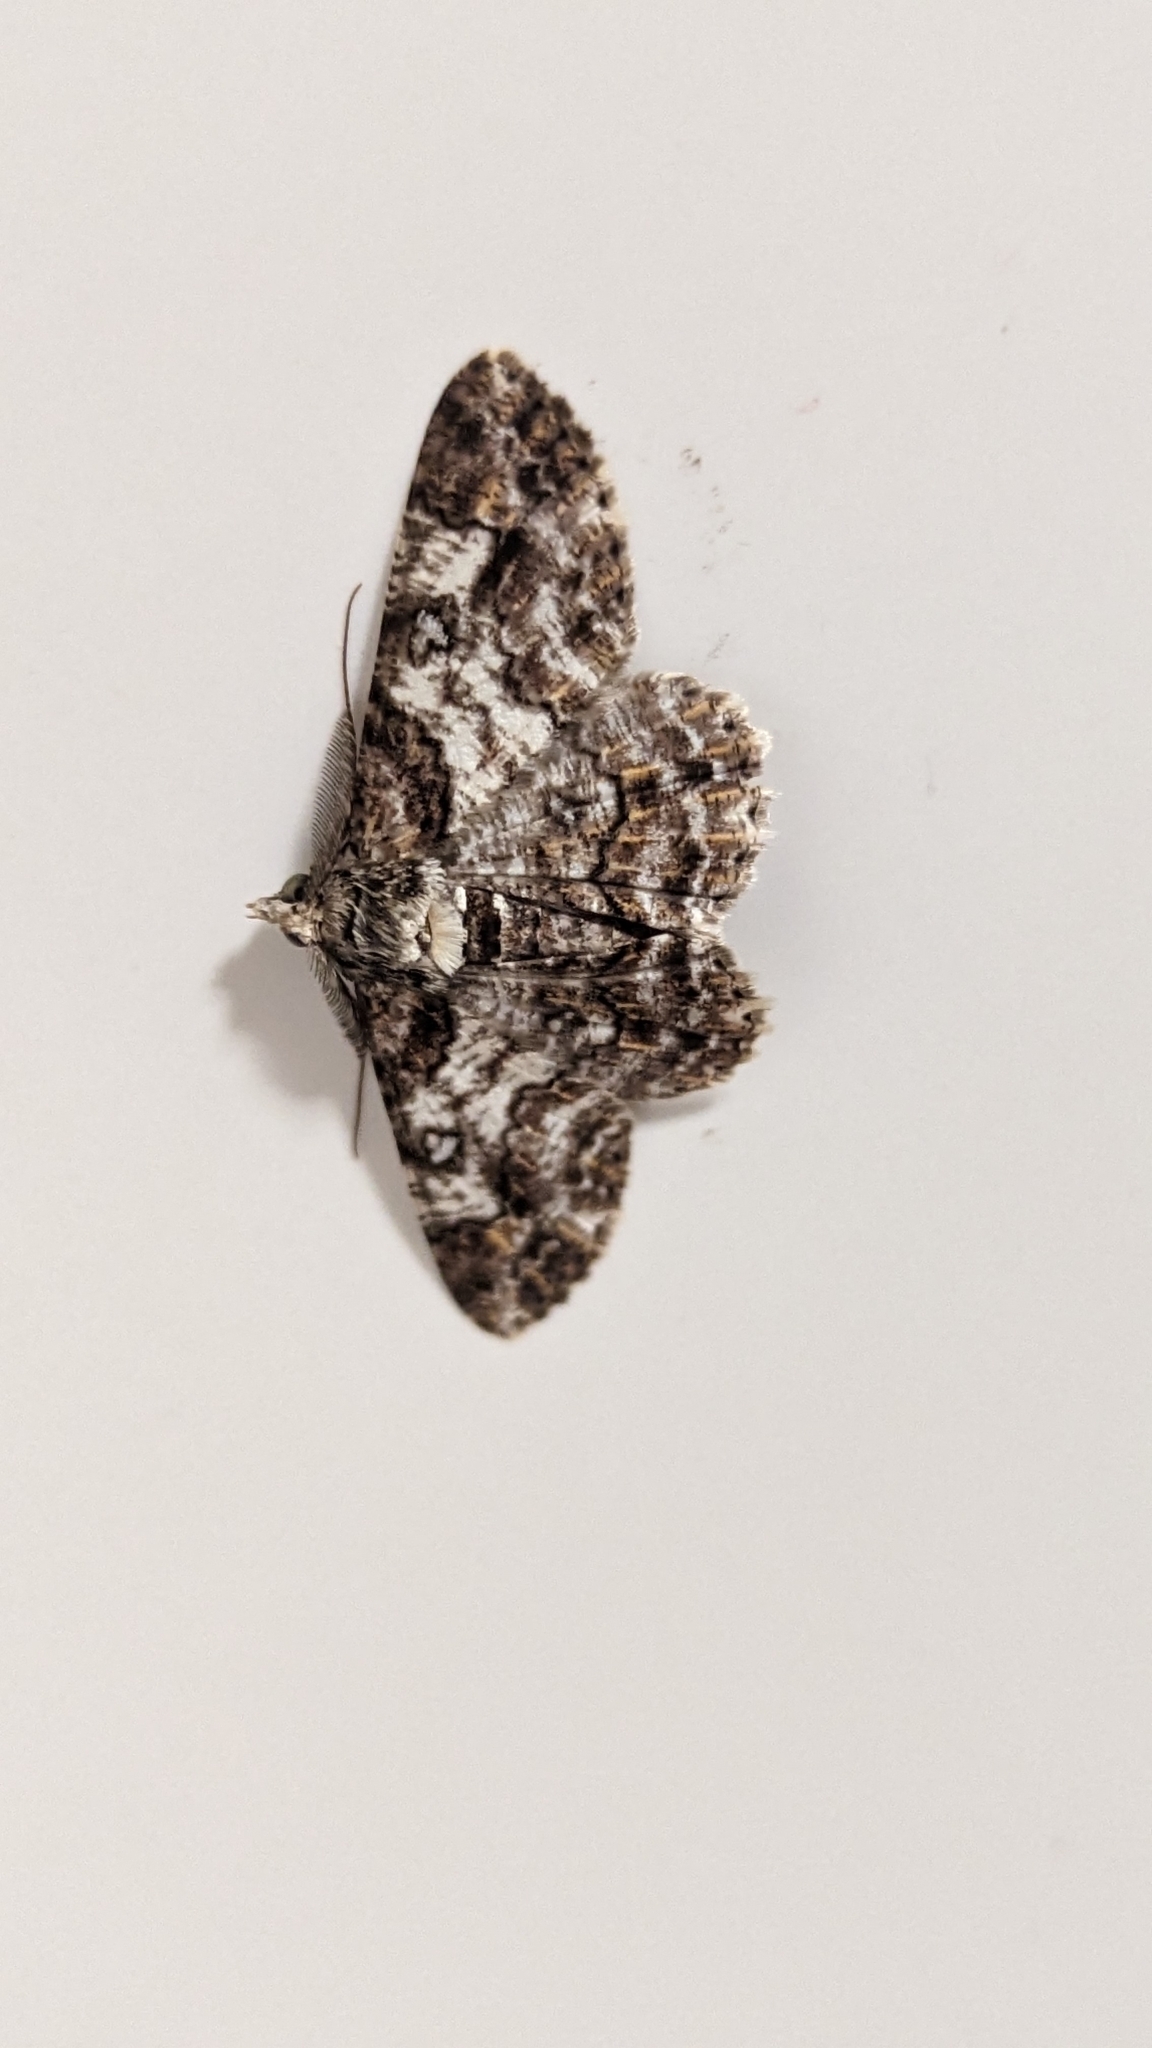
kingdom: Animalia
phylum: Arthropoda
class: Insecta
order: Lepidoptera
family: Geometridae
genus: Cleora
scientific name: Cleora illustraria
